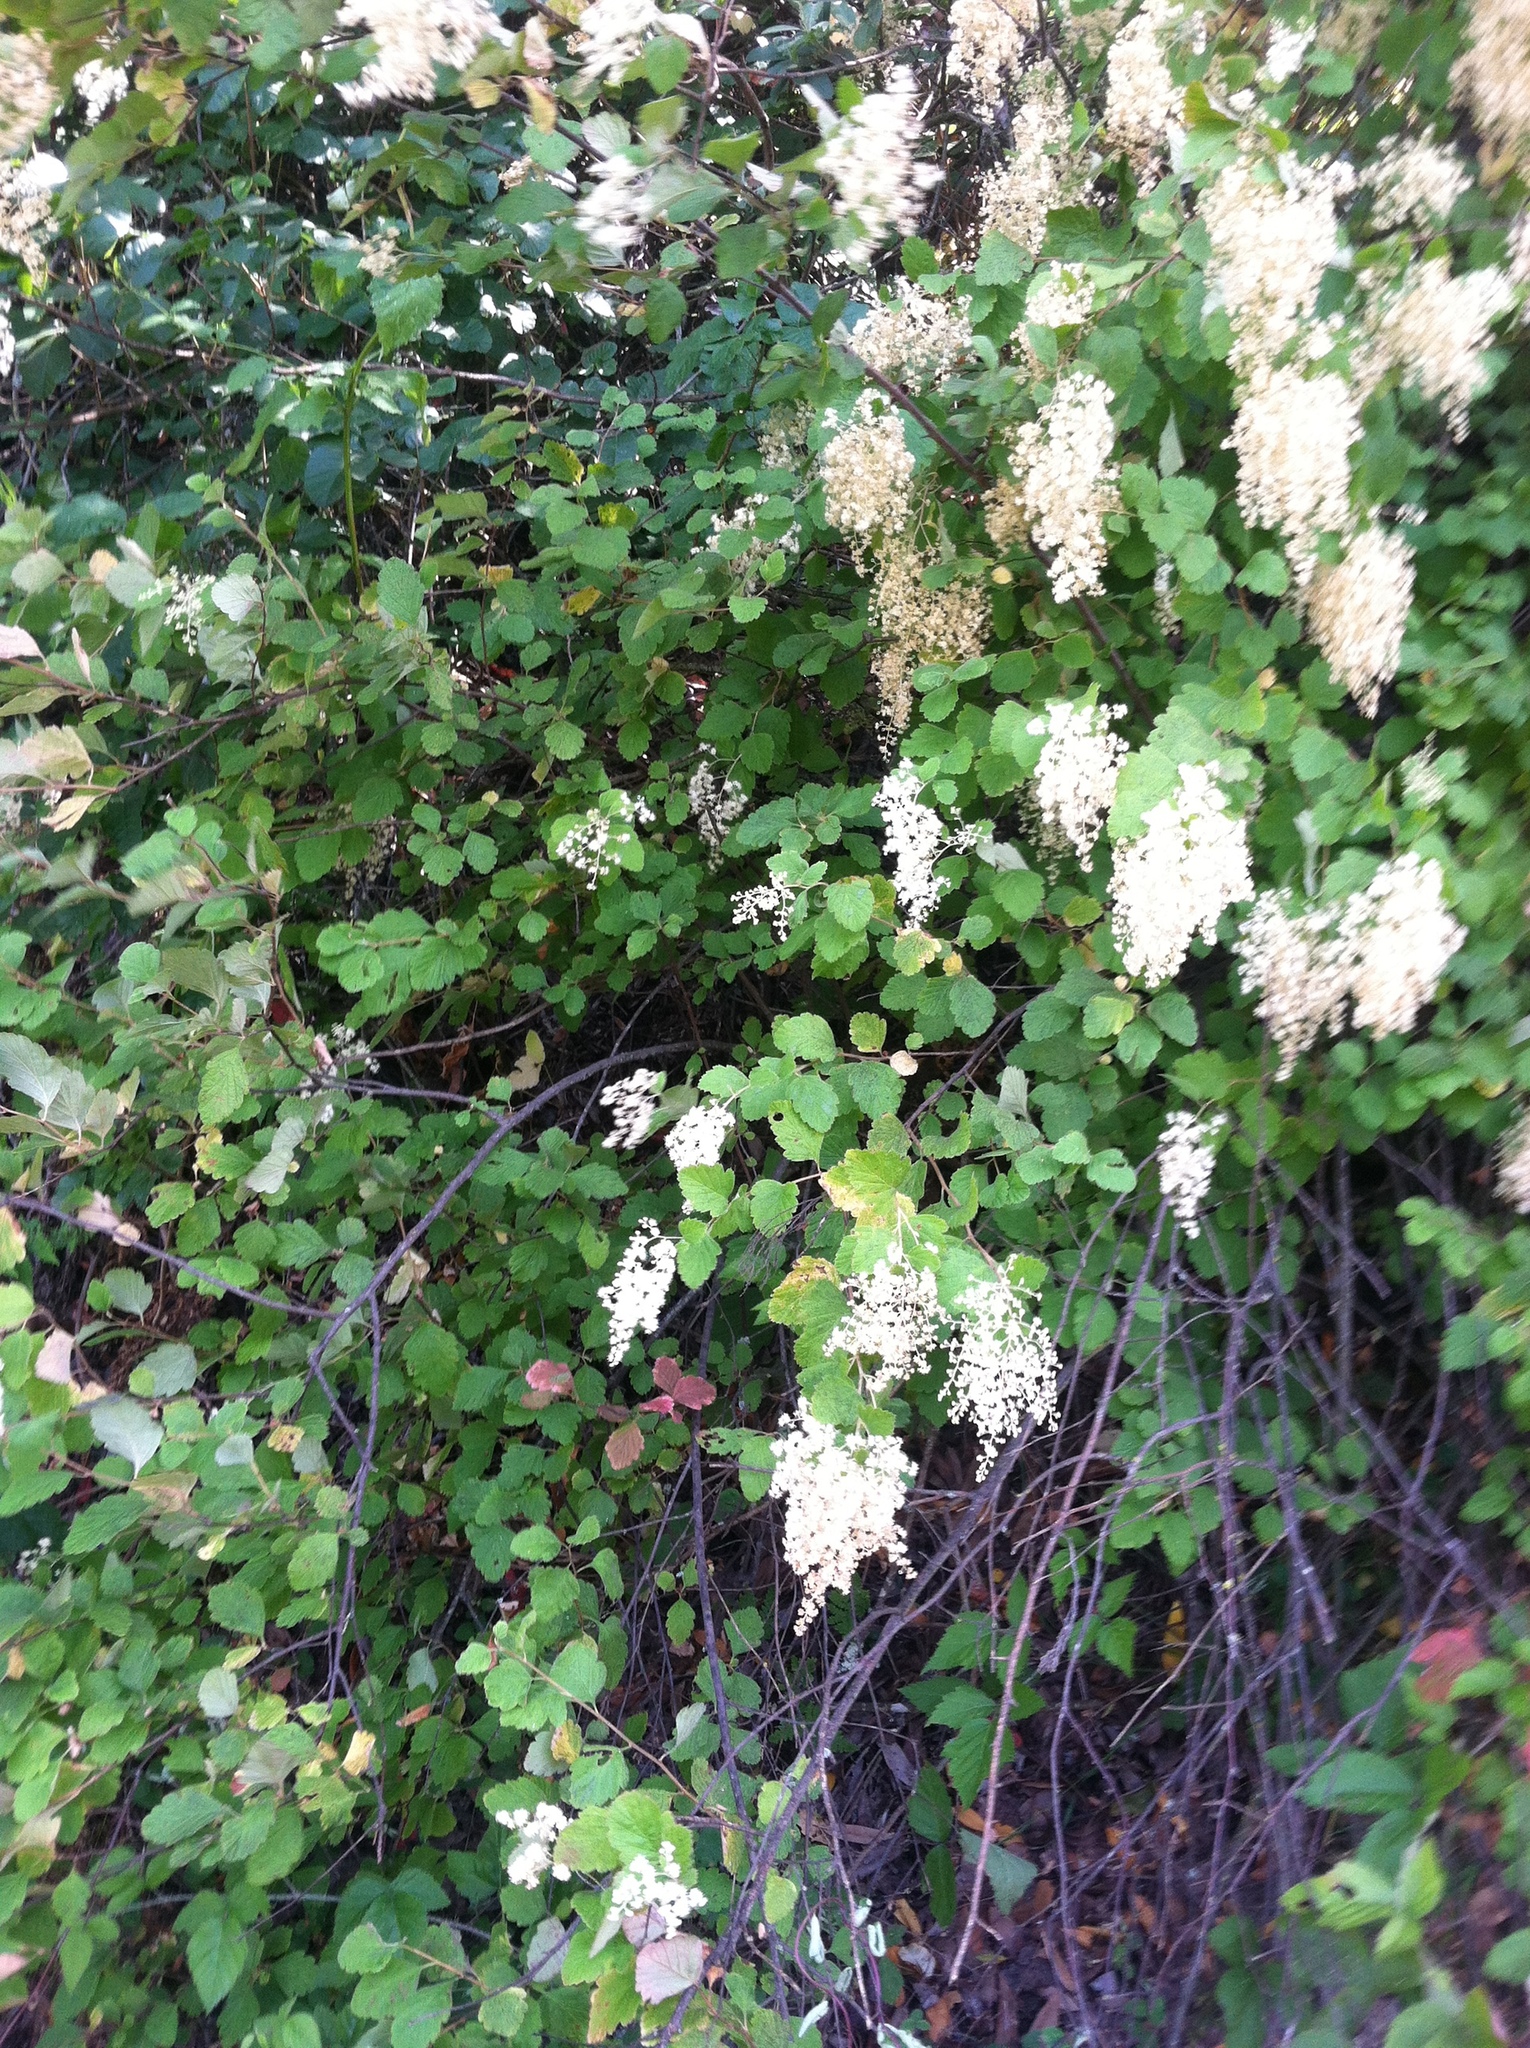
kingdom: Plantae
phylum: Tracheophyta
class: Magnoliopsida
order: Rosales
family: Rosaceae
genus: Holodiscus
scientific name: Holodiscus discolor
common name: Oceanspray
